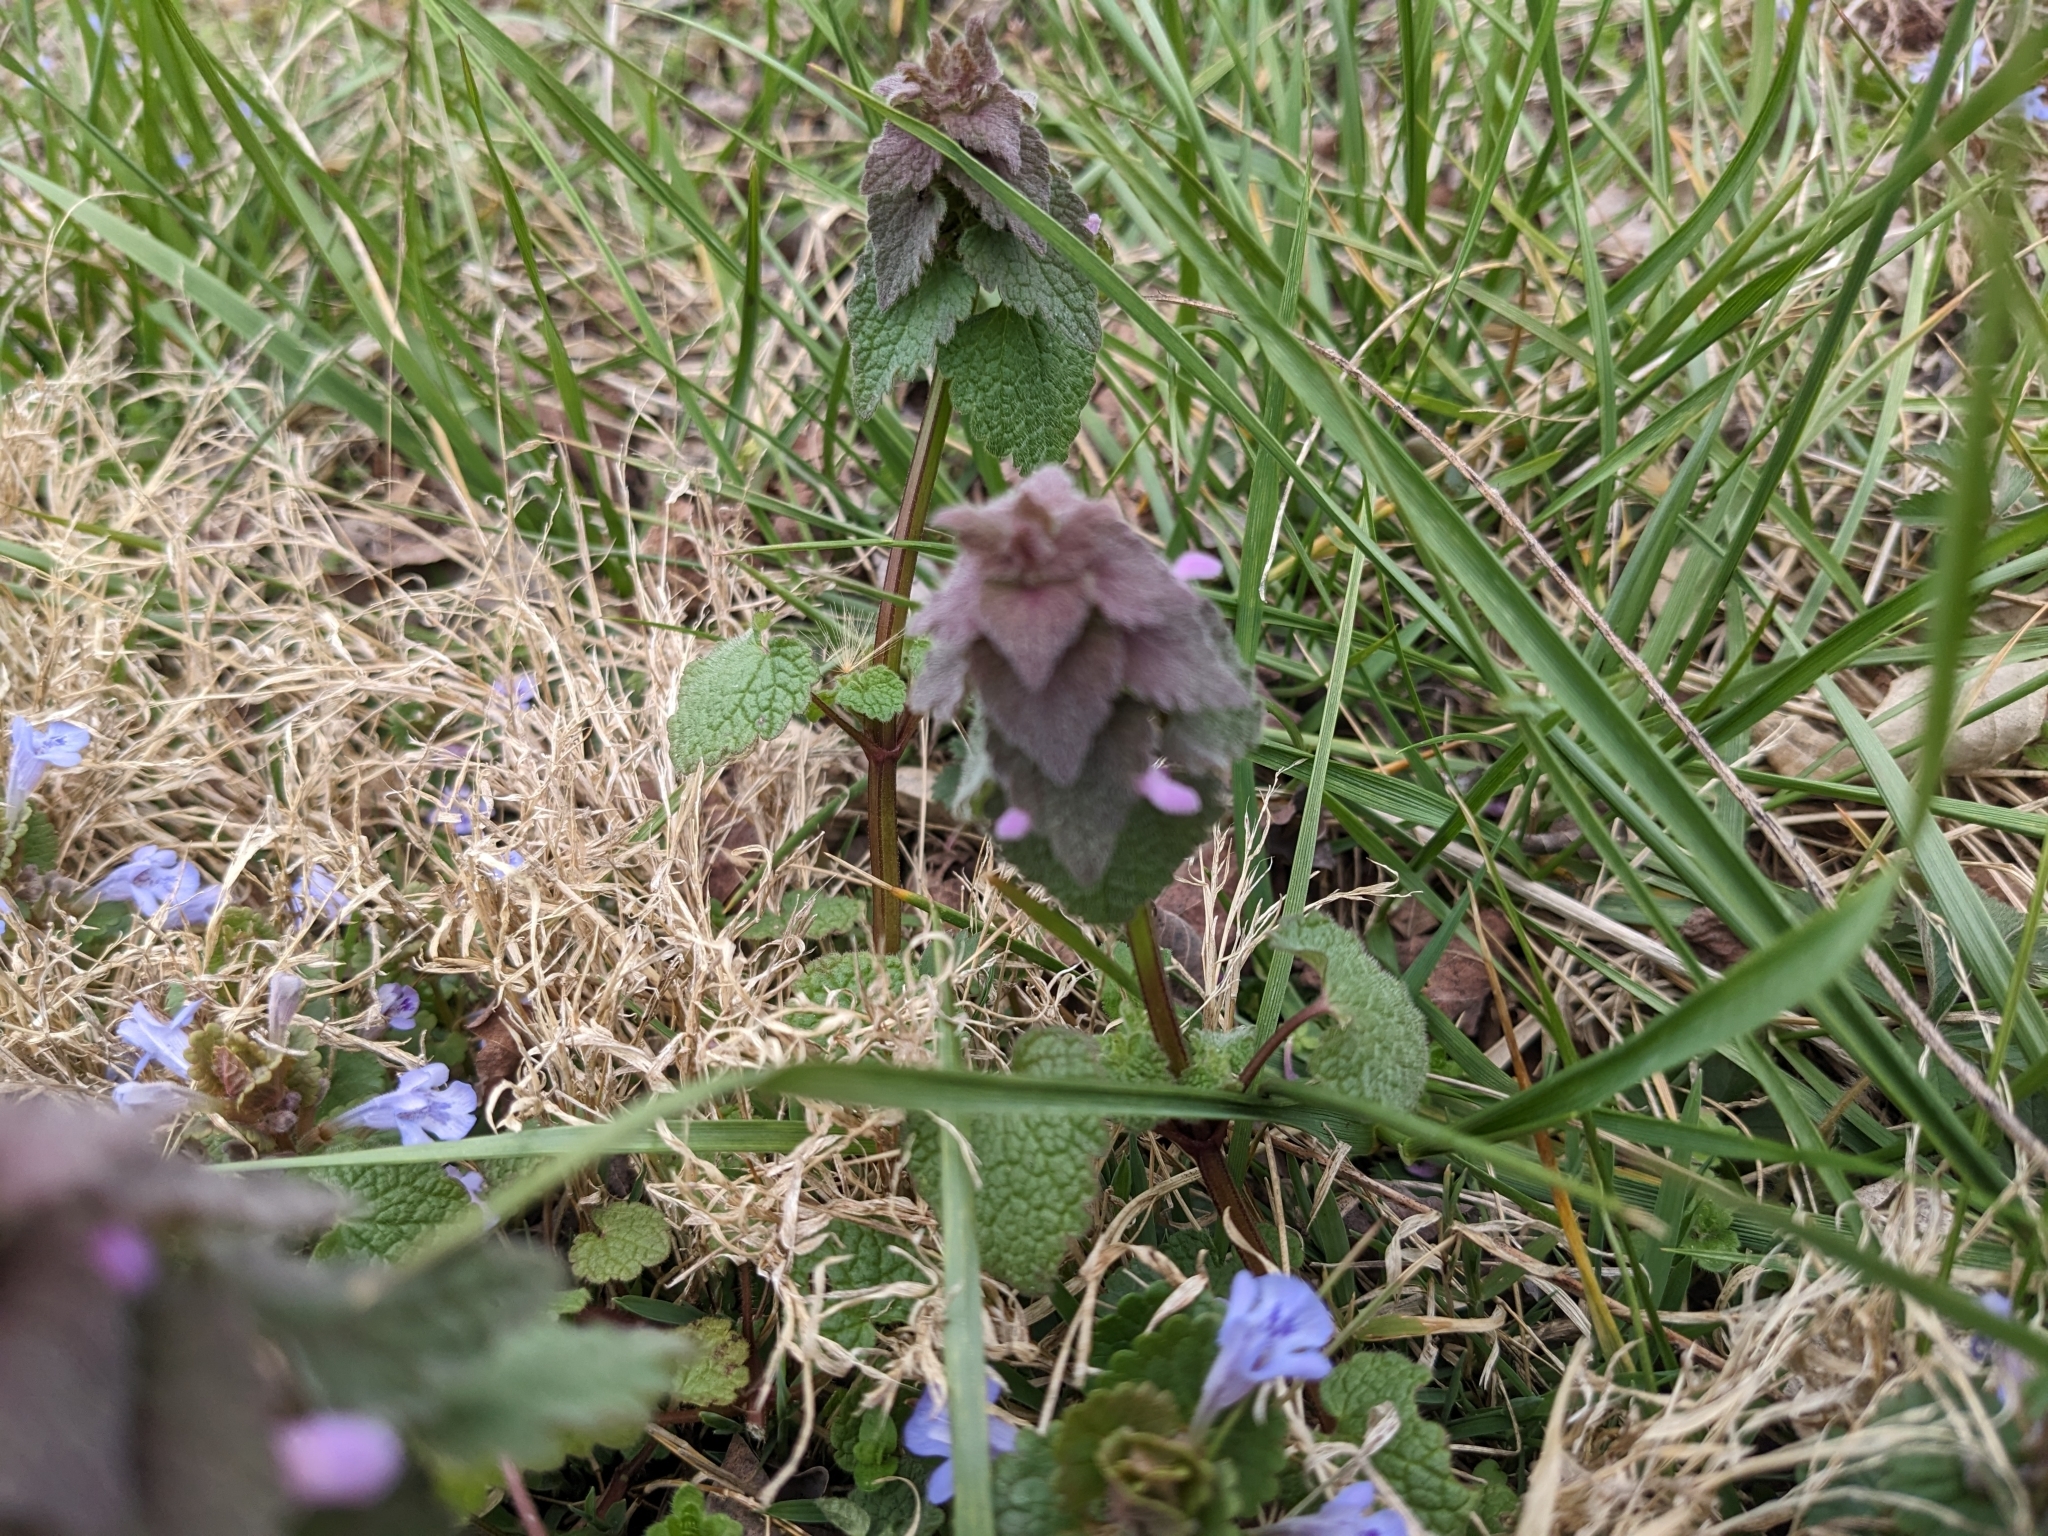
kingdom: Plantae
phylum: Tracheophyta
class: Magnoliopsida
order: Lamiales
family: Lamiaceae
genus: Lamium
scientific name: Lamium purpureum
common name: Red dead-nettle
